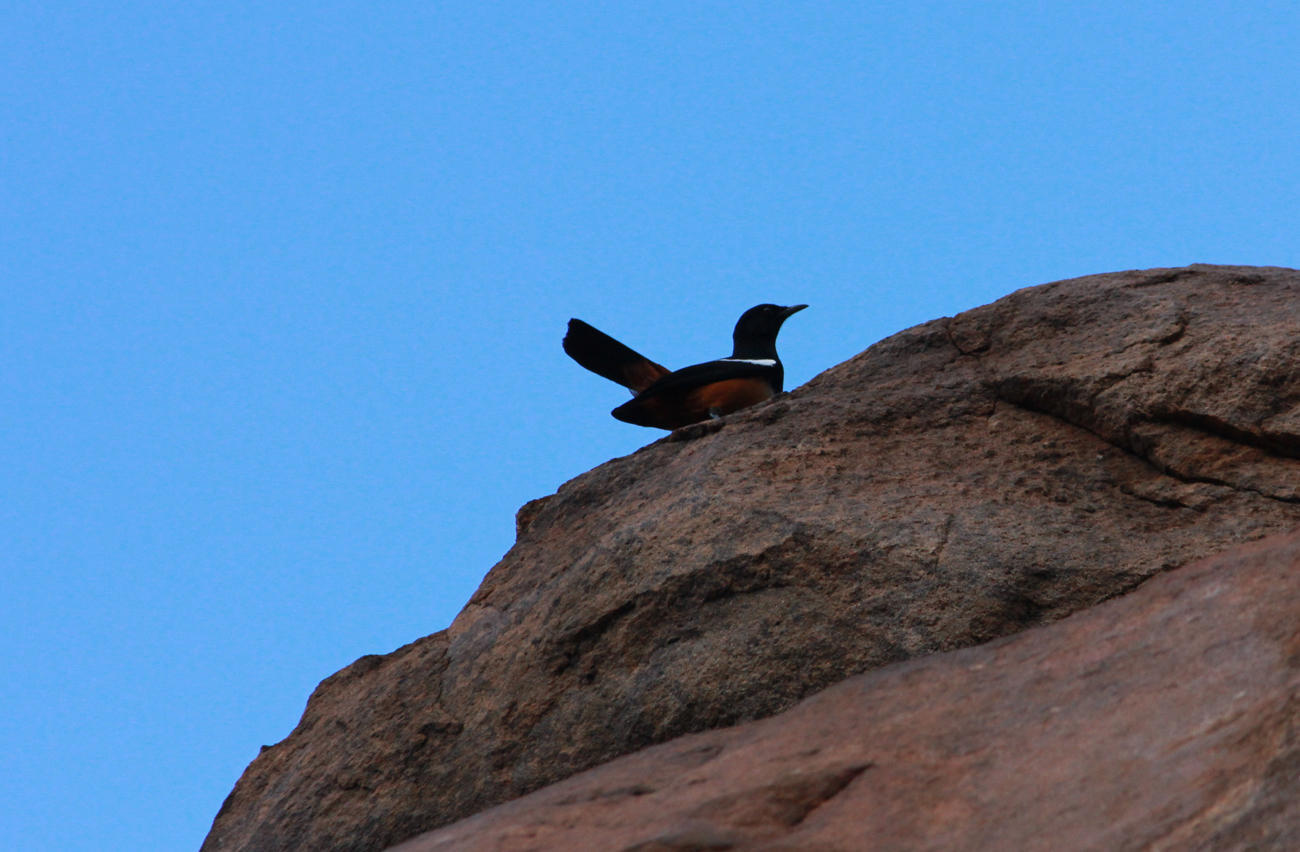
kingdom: Animalia
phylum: Chordata
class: Aves
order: Passeriformes
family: Muscicapidae
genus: Thamnolaea
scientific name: Thamnolaea cinnamomeiventris
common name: Mocking cliff chat
